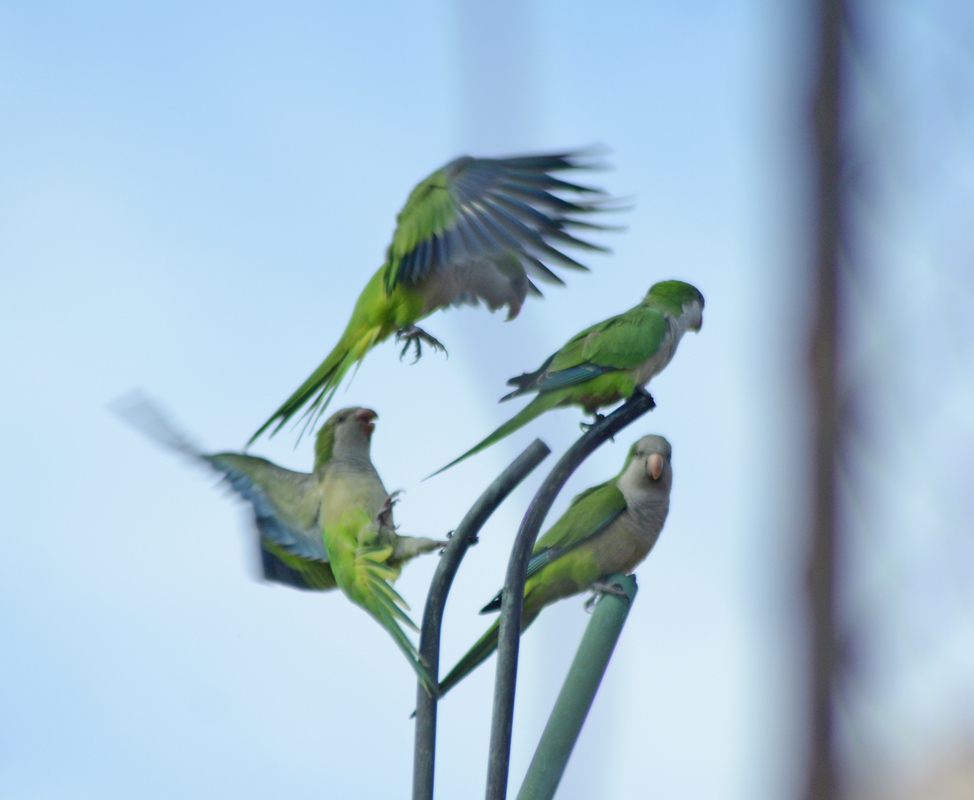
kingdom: Animalia
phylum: Chordata
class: Aves
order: Psittaciformes
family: Psittacidae
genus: Myiopsitta
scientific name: Myiopsitta monachus
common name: Monk parakeet
